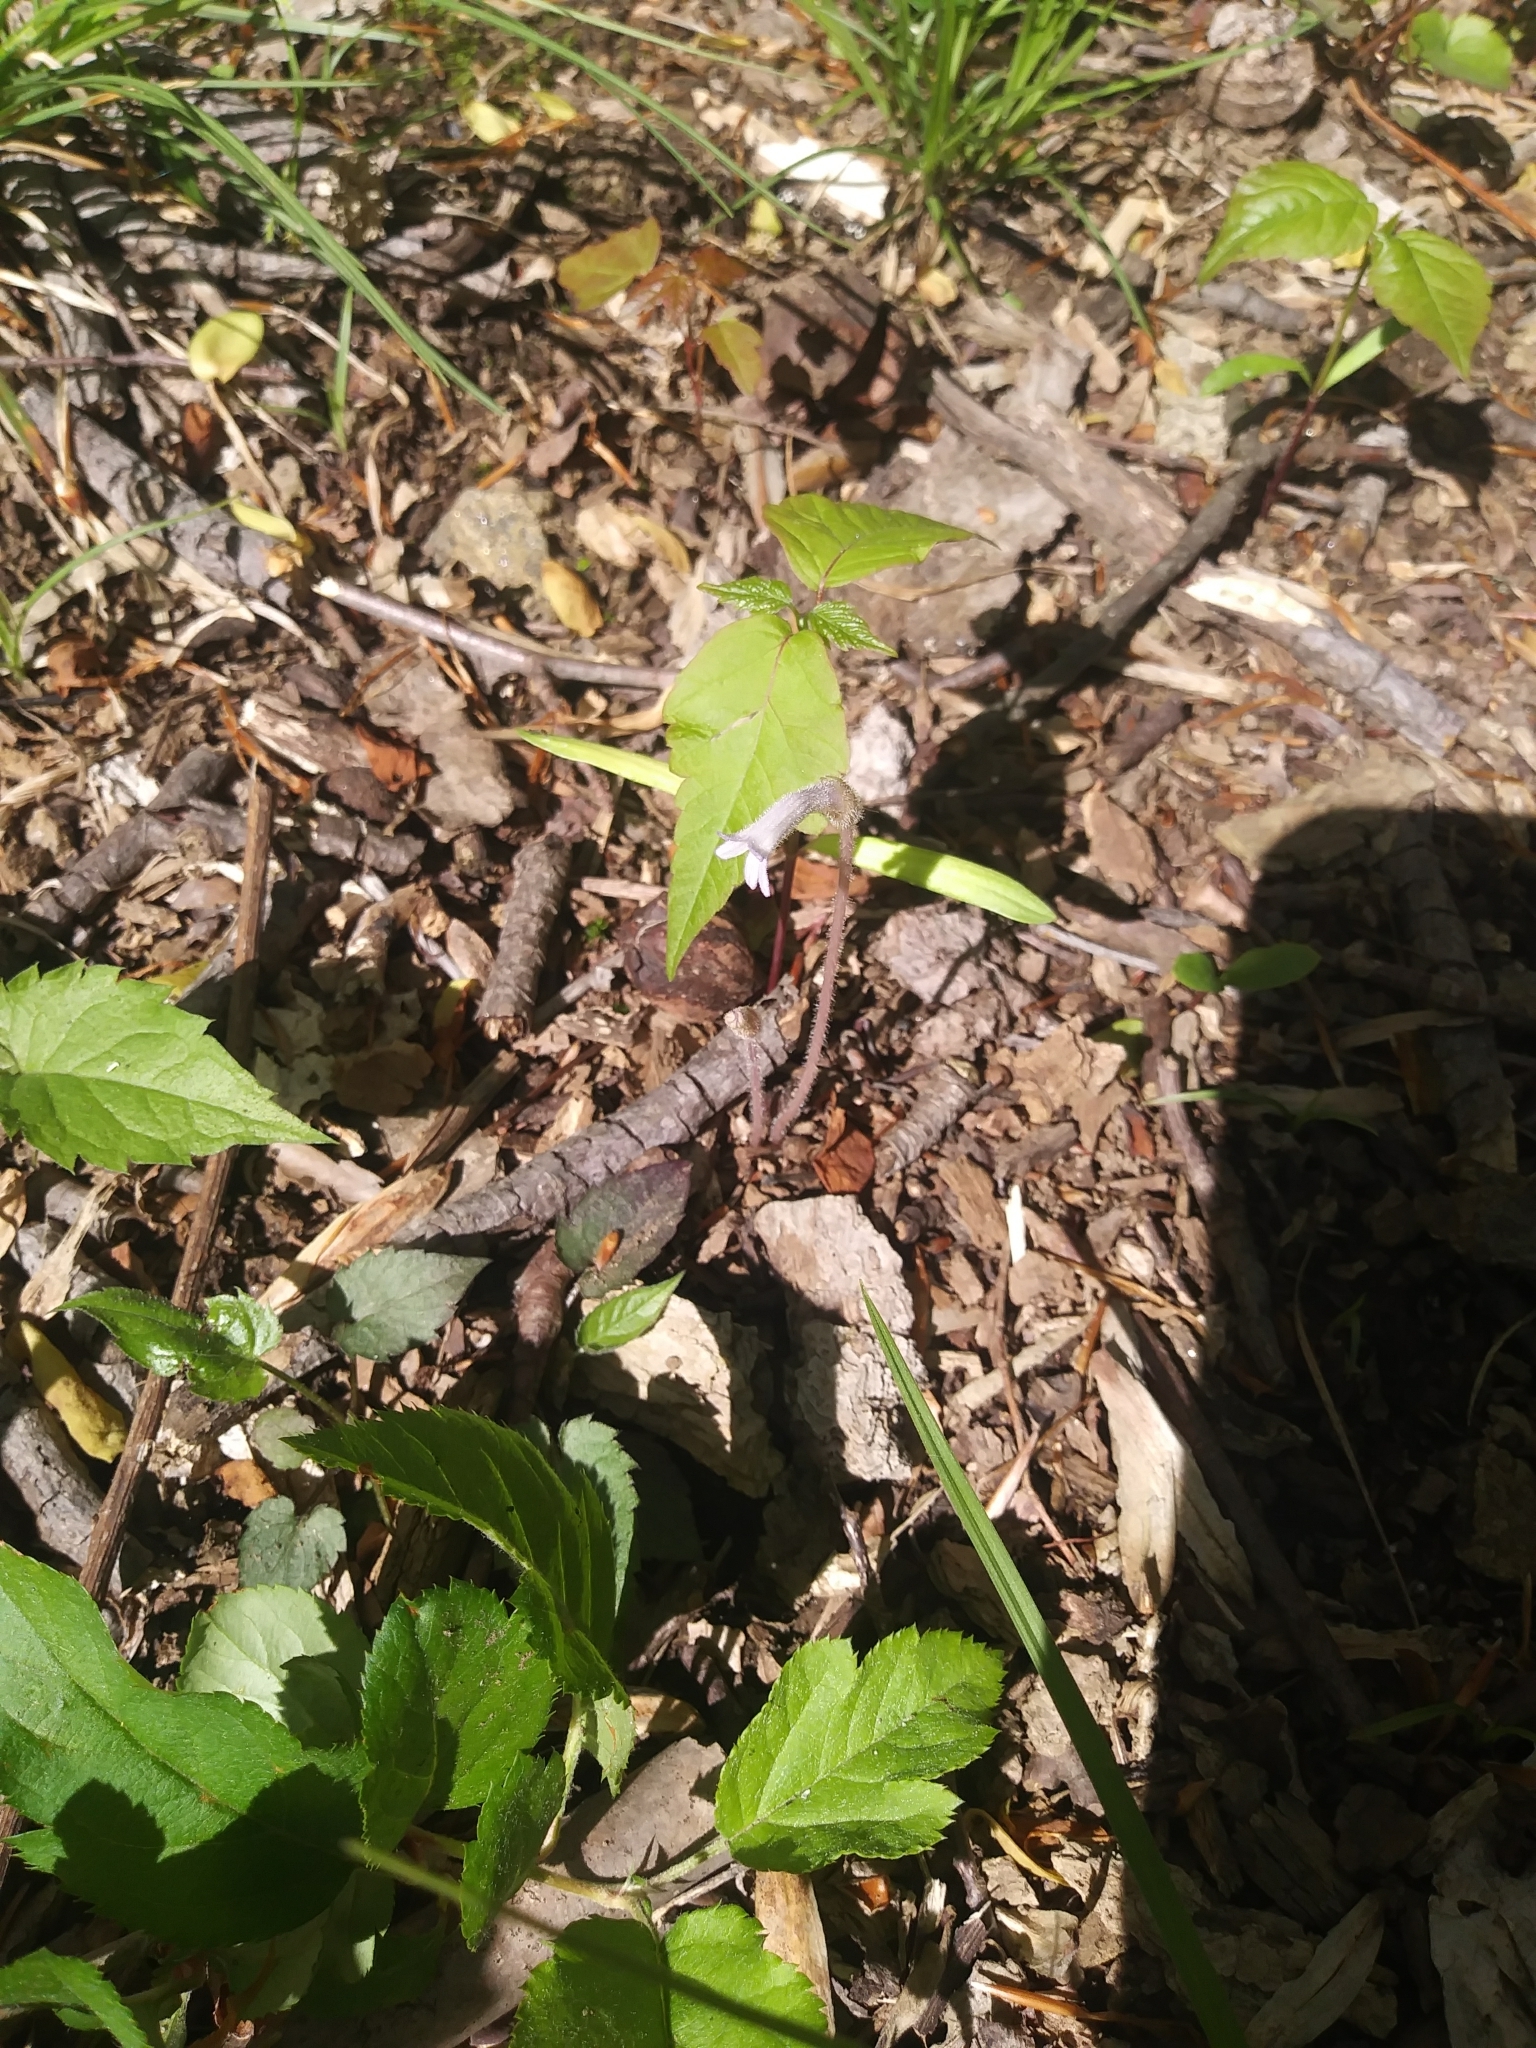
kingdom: Plantae
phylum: Tracheophyta
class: Magnoliopsida
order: Lamiales
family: Orobanchaceae
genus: Aphyllon
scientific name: Aphyllon uniflorum
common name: One-flowered broomrape
